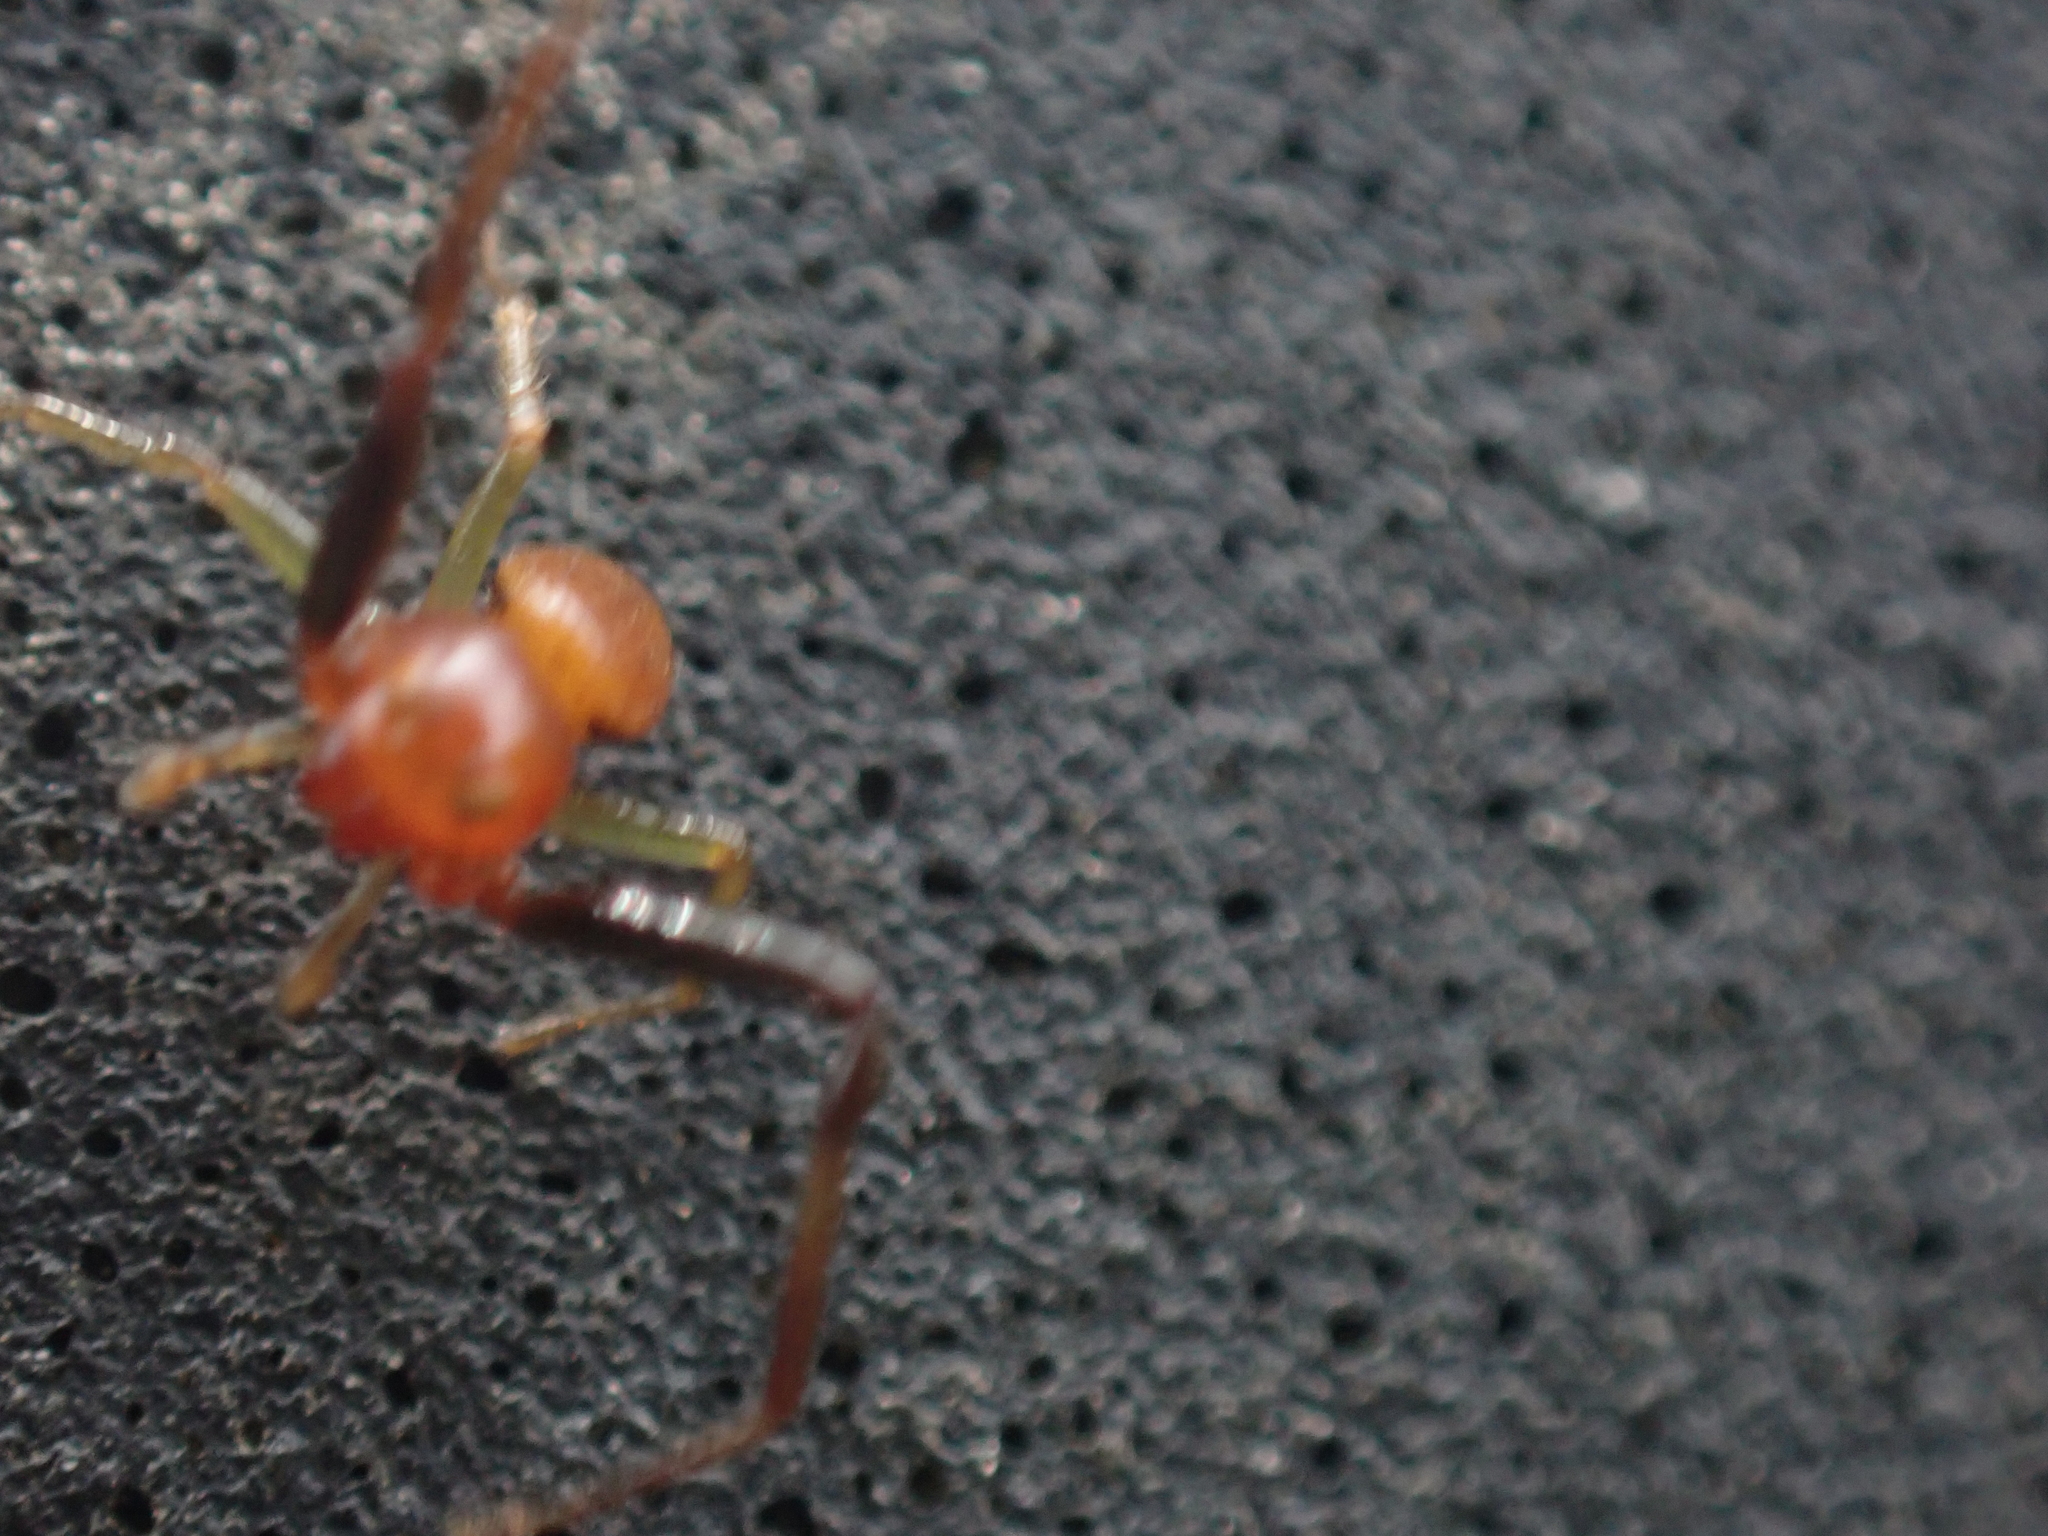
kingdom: Animalia
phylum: Arthropoda
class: Arachnida
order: Araneae
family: Thomisidae
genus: Synema
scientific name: Synema parvulum
